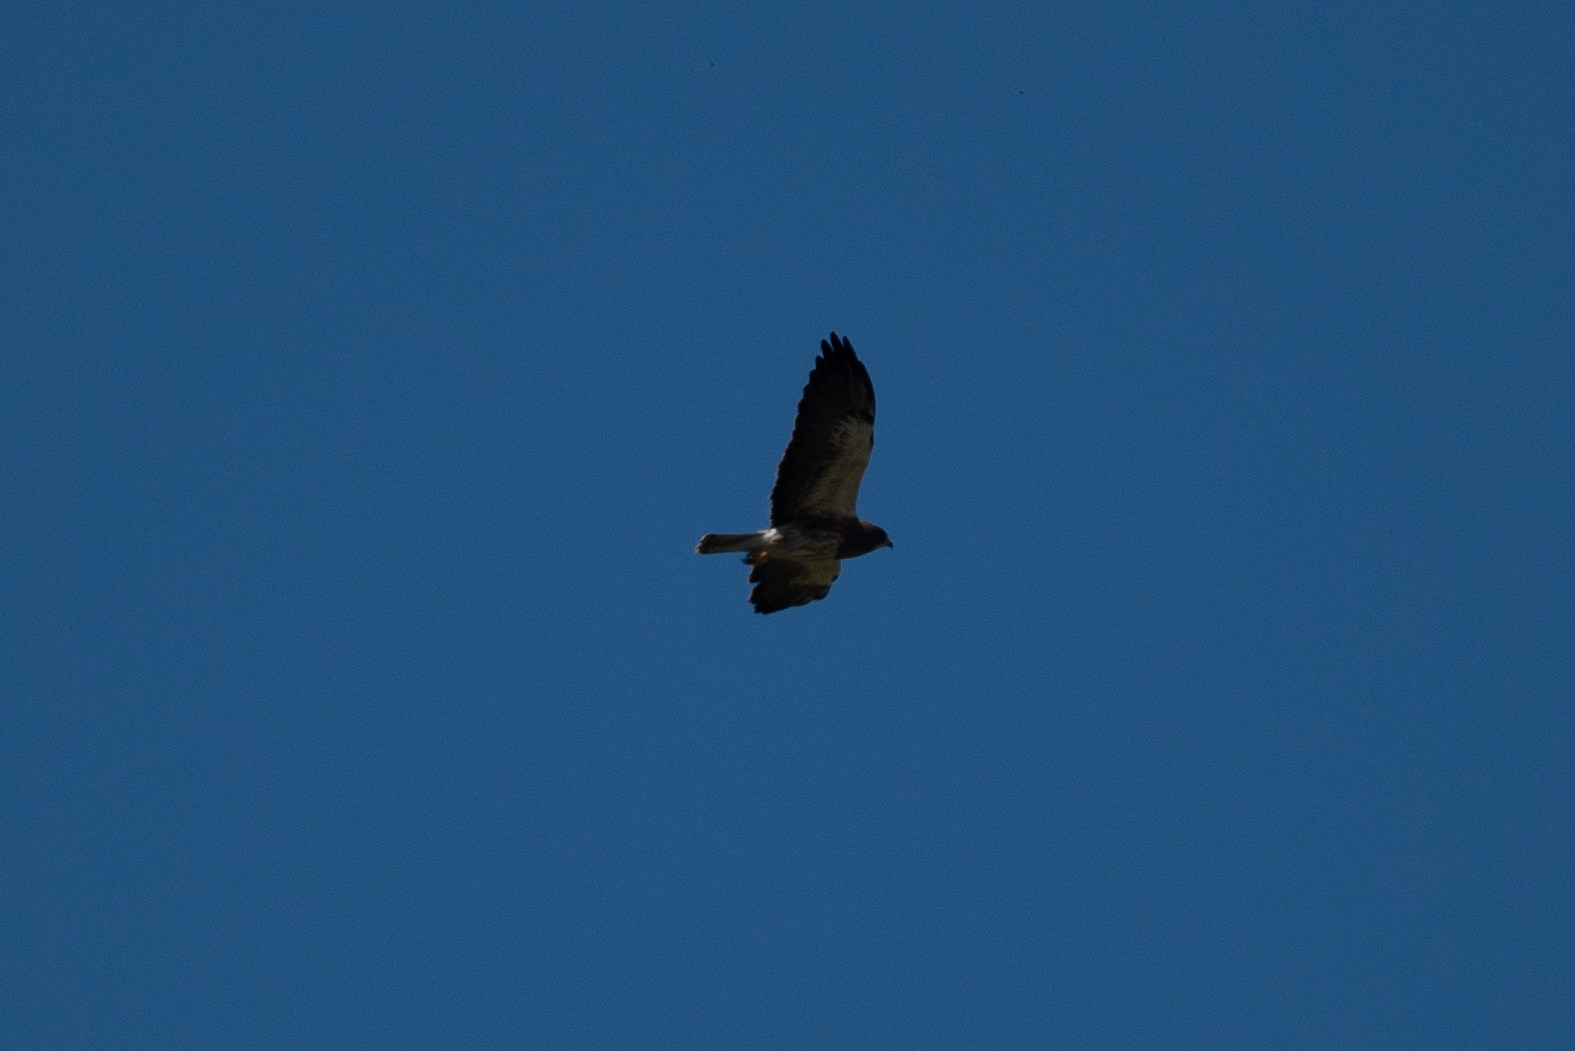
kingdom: Animalia
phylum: Chordata
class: Aves
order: Accipitriformes
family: Accipitridae
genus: Buteo
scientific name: Buteo swainsoni
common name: Swainson's hawk
